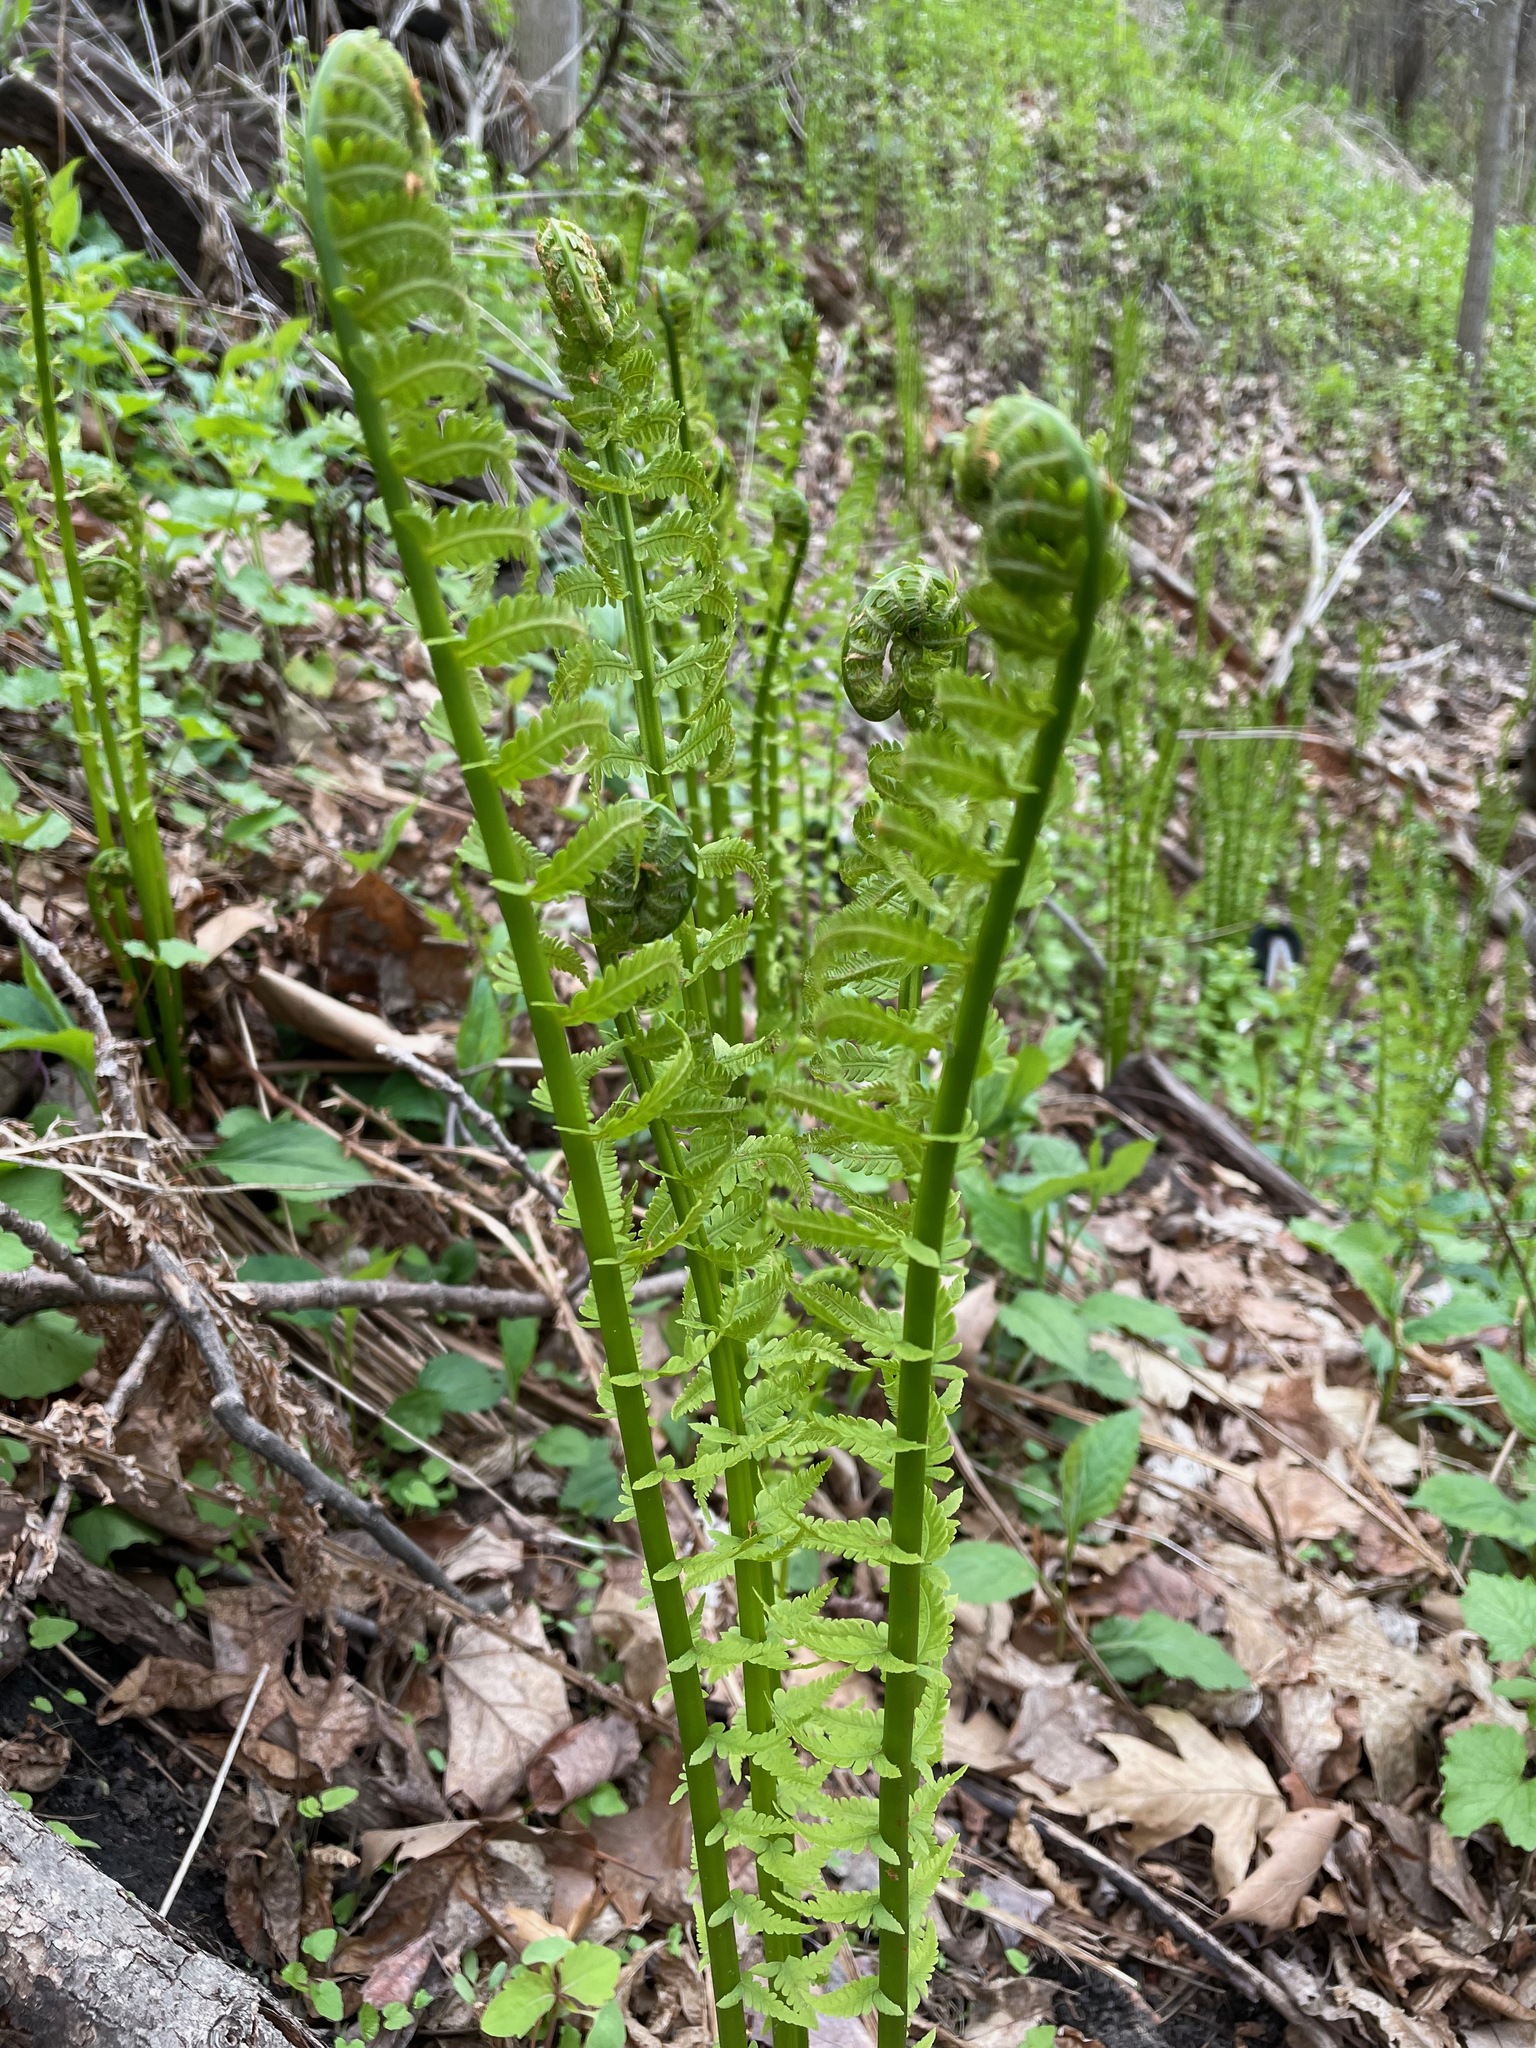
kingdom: Plantae
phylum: Tracheophyta
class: Polypodiopsida
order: Polypodiales
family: Onocleaceae
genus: Matteuccia
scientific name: Matteuccia struthiopteris
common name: Ostrich fern
